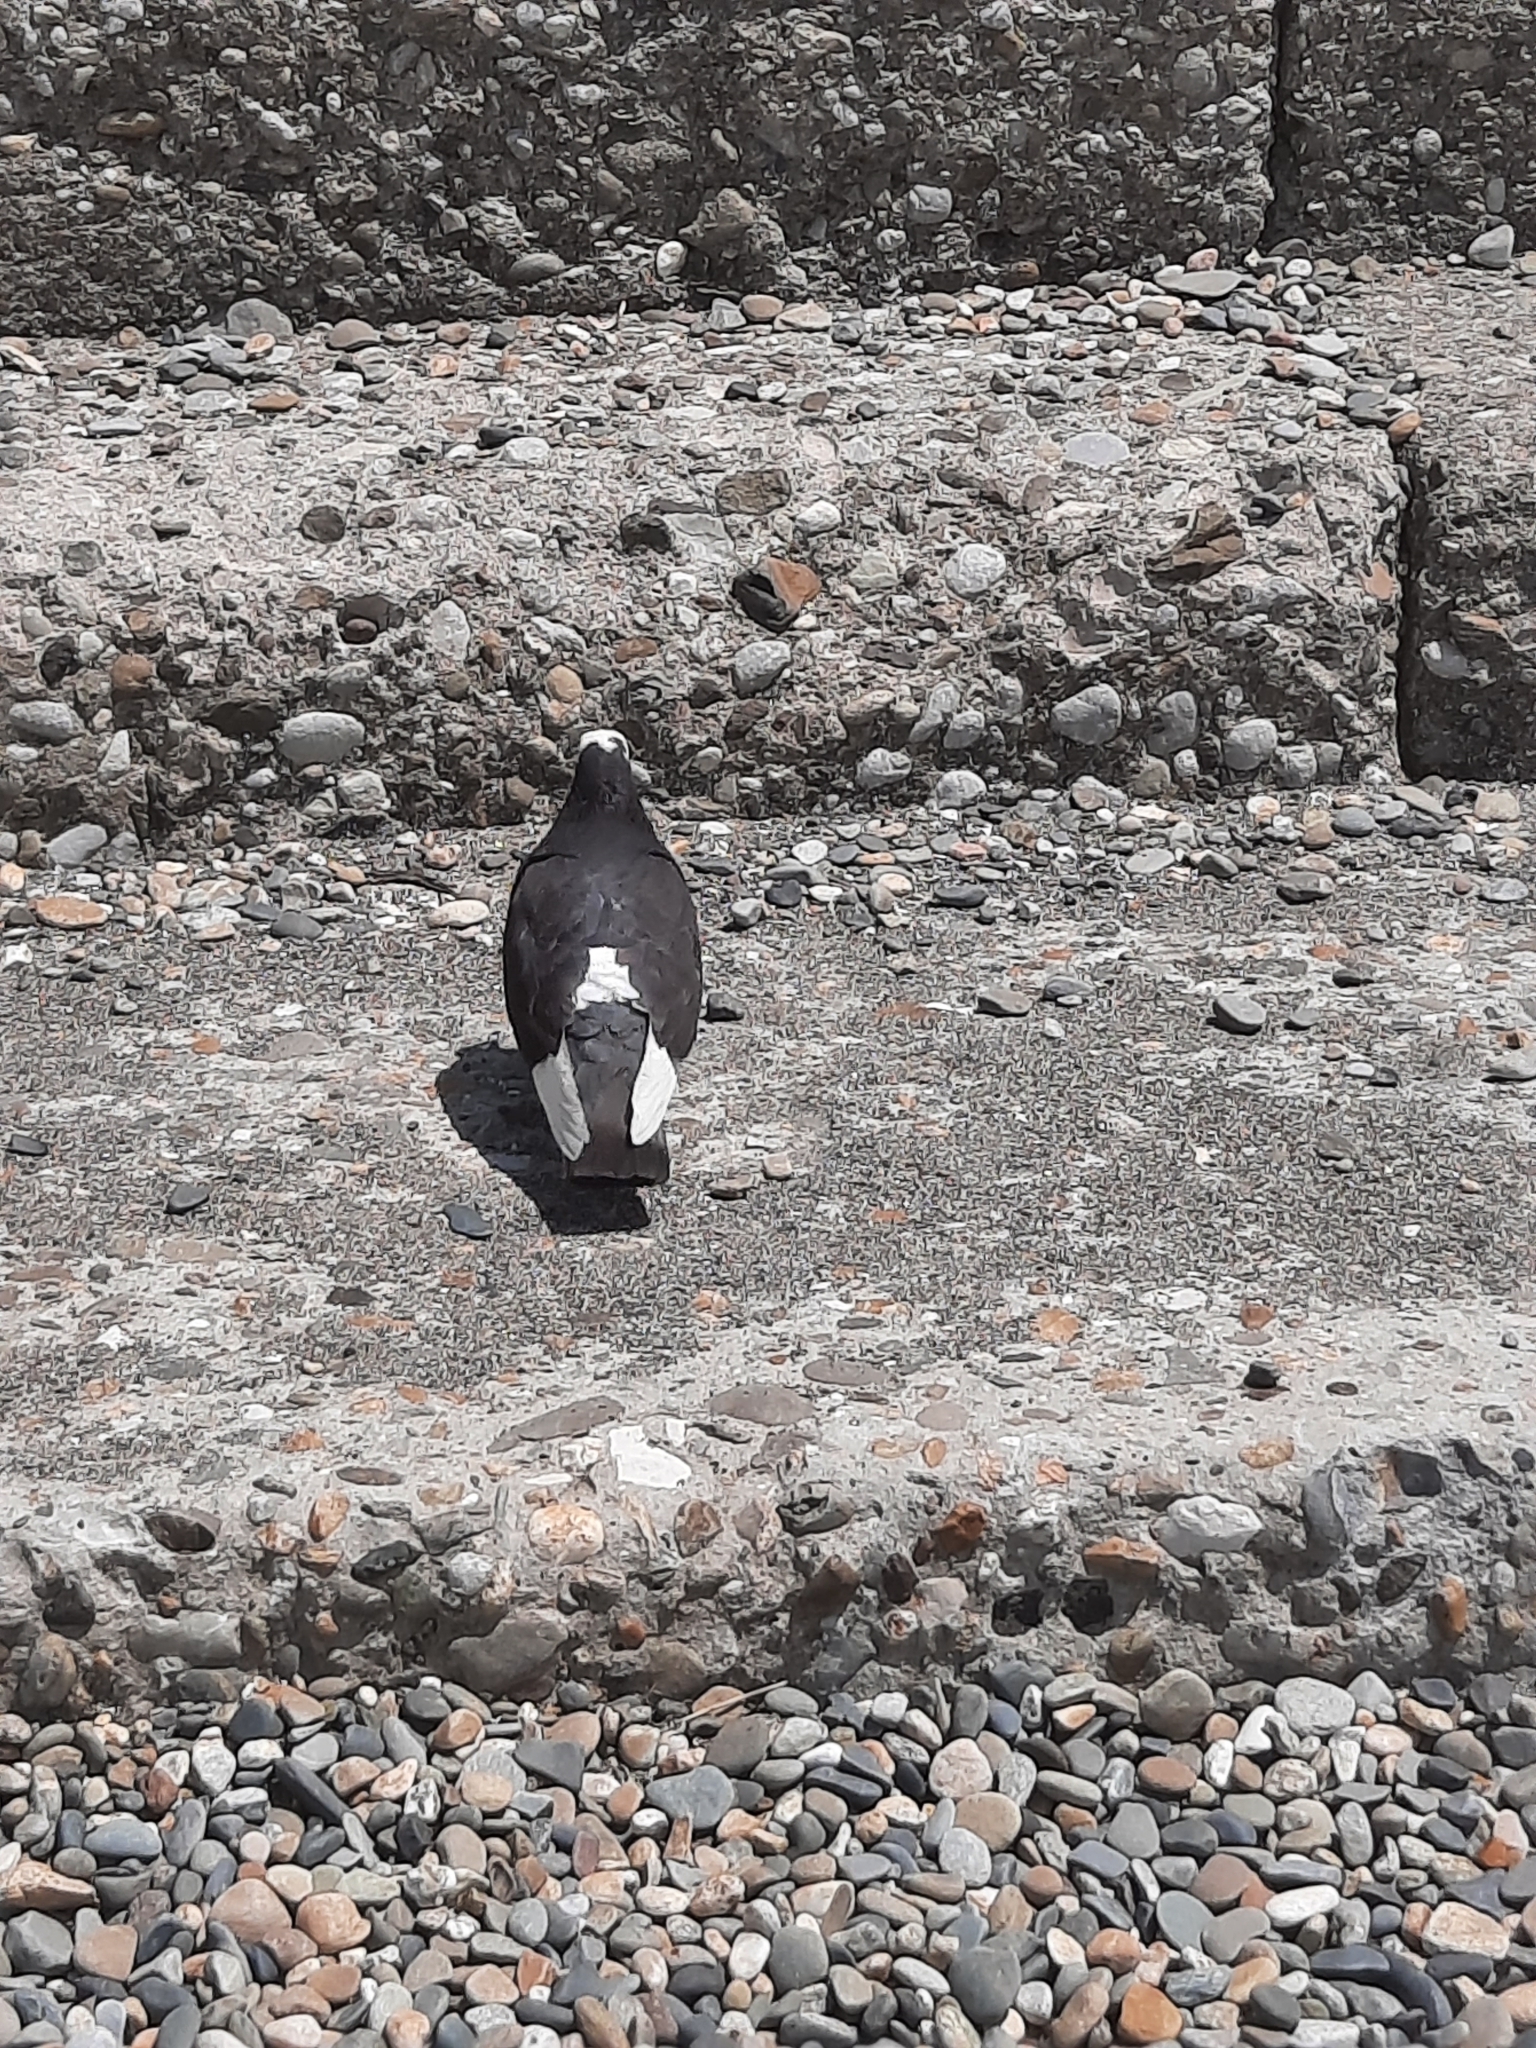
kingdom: Animalia
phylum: Chordata
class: Aves
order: Columbiformes
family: Columbidae
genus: Columba
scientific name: Columba livia
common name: Rock pigeon
